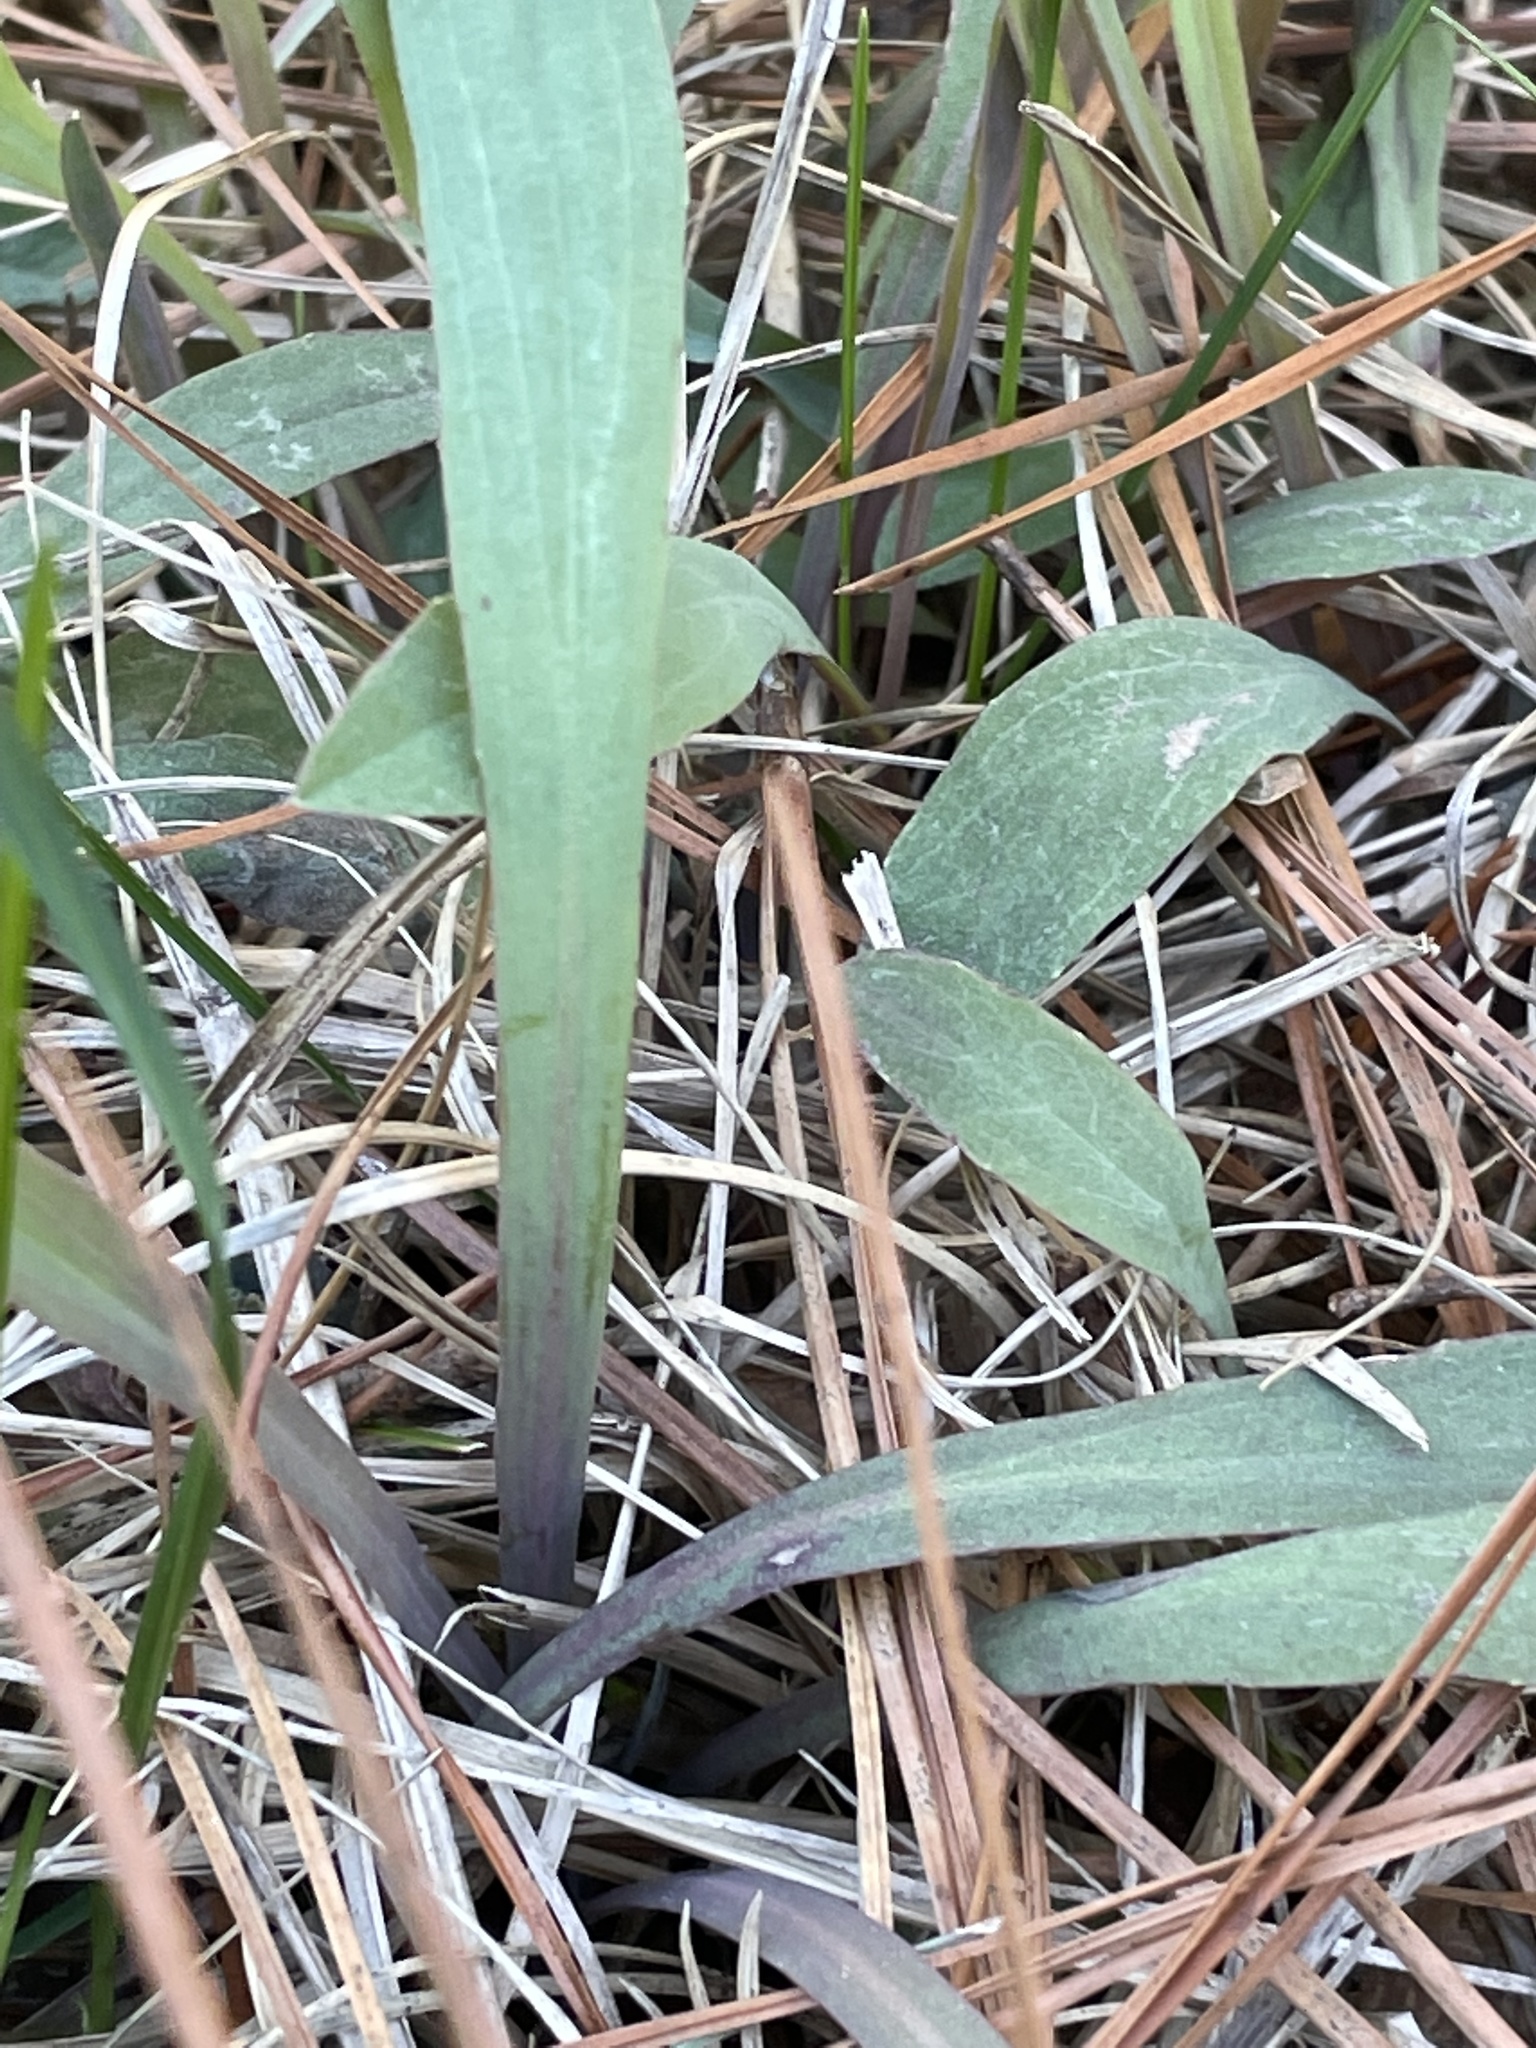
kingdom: Plantae
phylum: Tracheophyta
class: Magnoliopsida
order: Asterales
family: Asteraceae
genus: Krigia
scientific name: Krigia dandelion
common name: Colonial dwarf-dandelion
